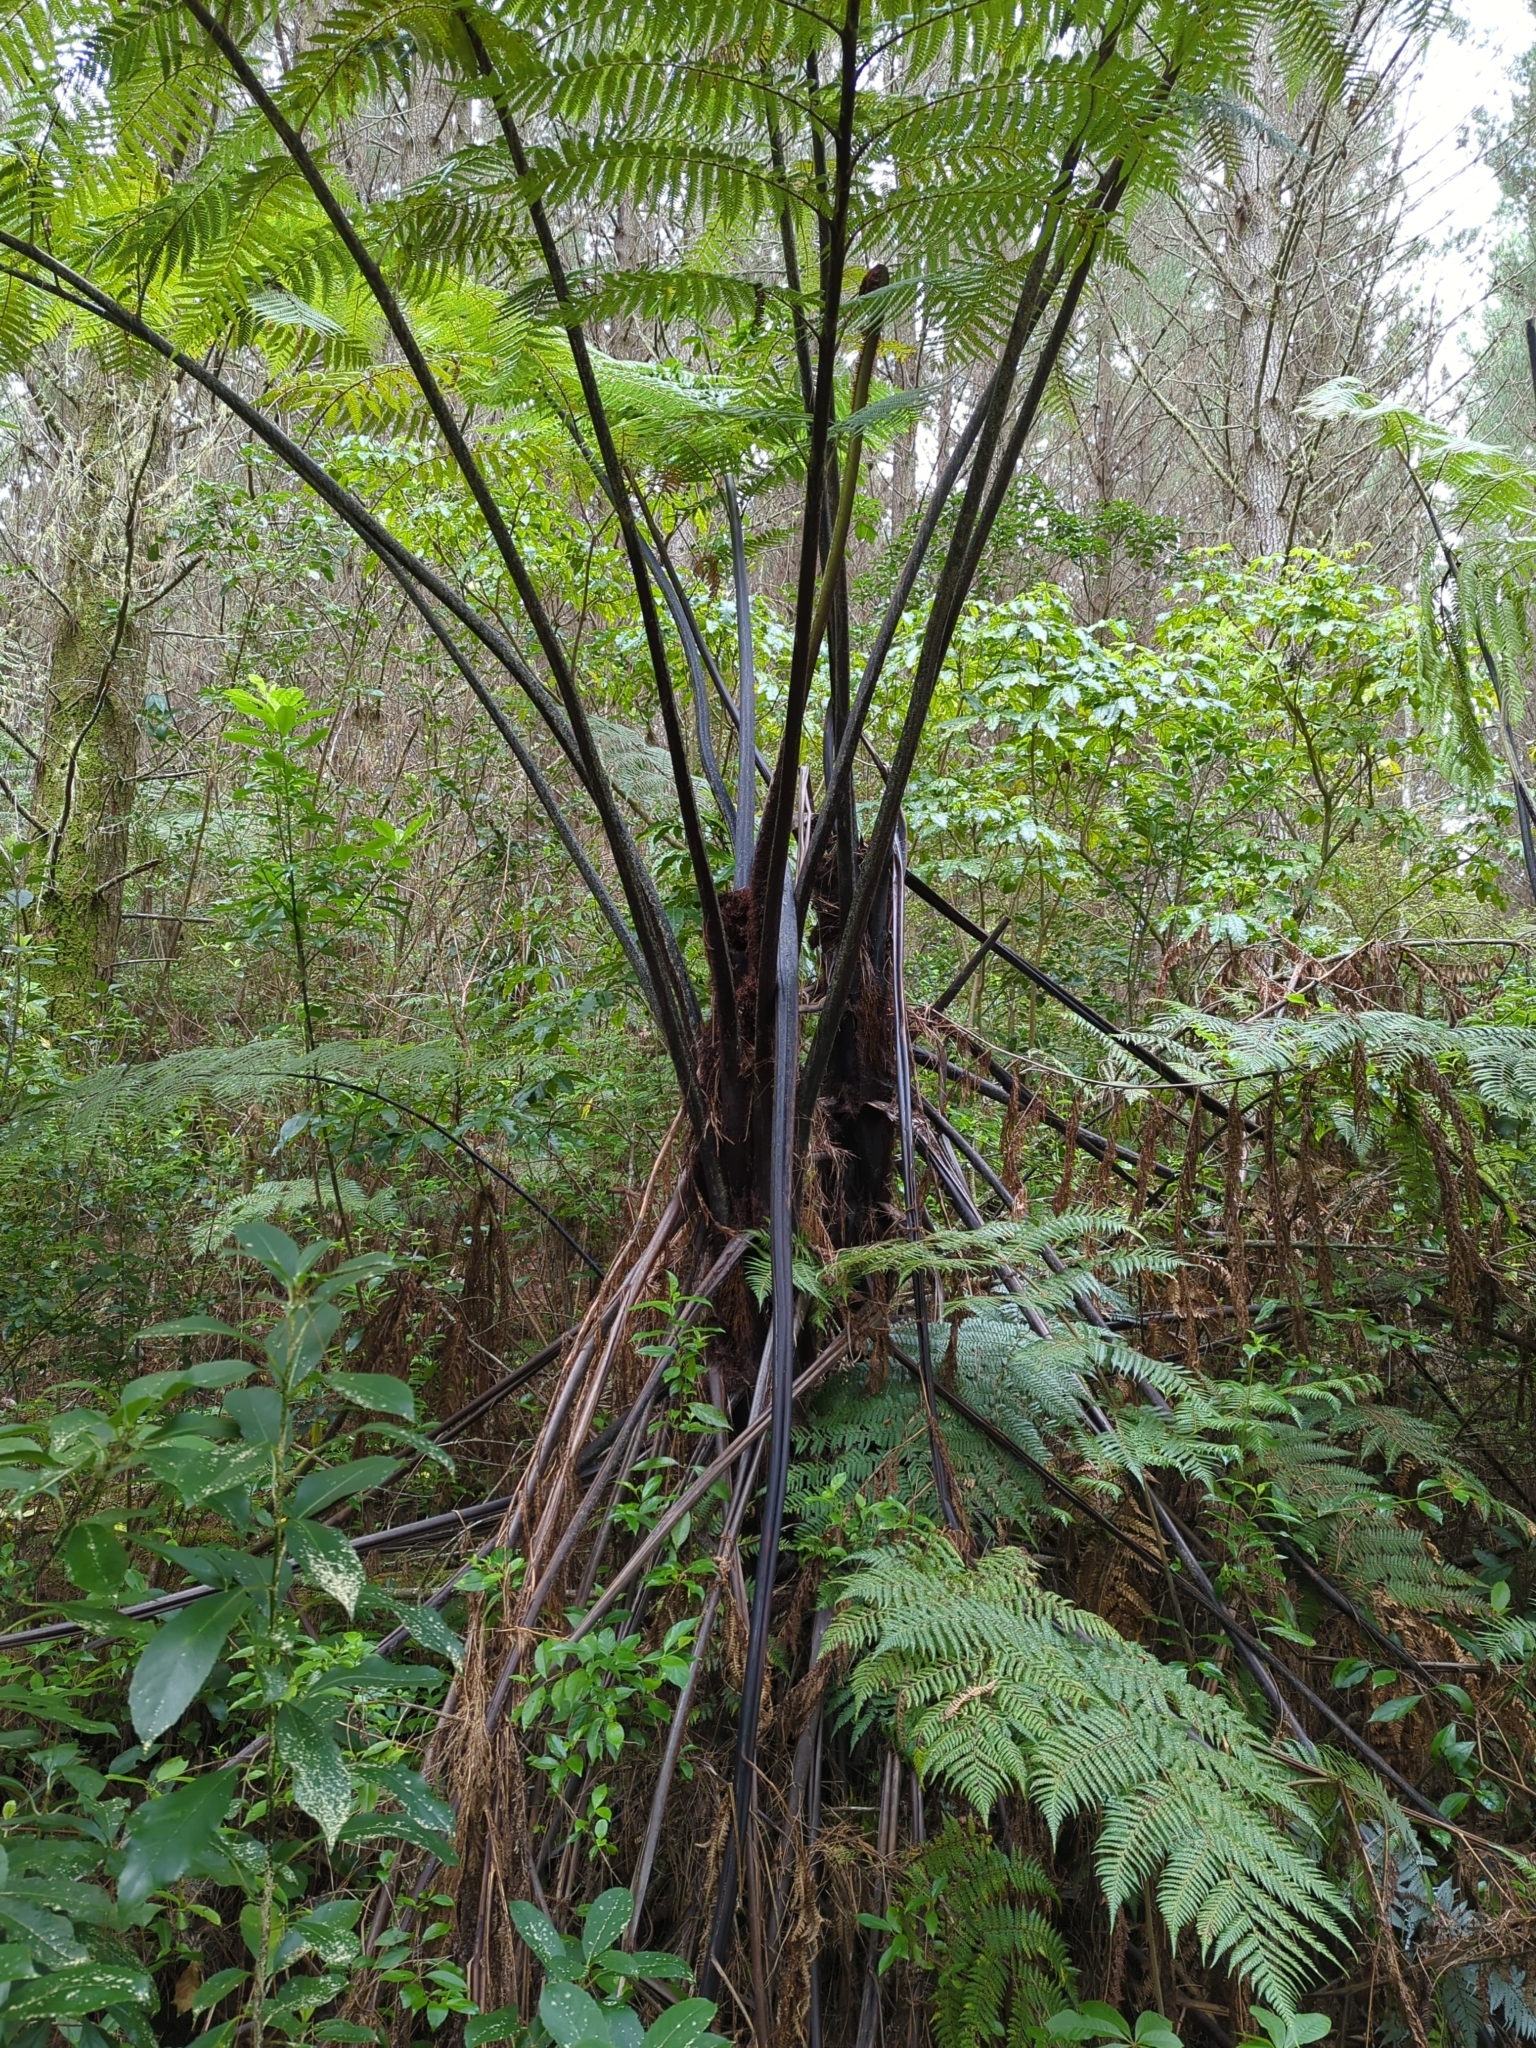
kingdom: Plantae
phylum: Tracheophyta
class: Polypodiopsida
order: Cyatheales
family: Cyatheaceae
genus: Sphaeropteris
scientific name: Sphaeropteris medullaris
